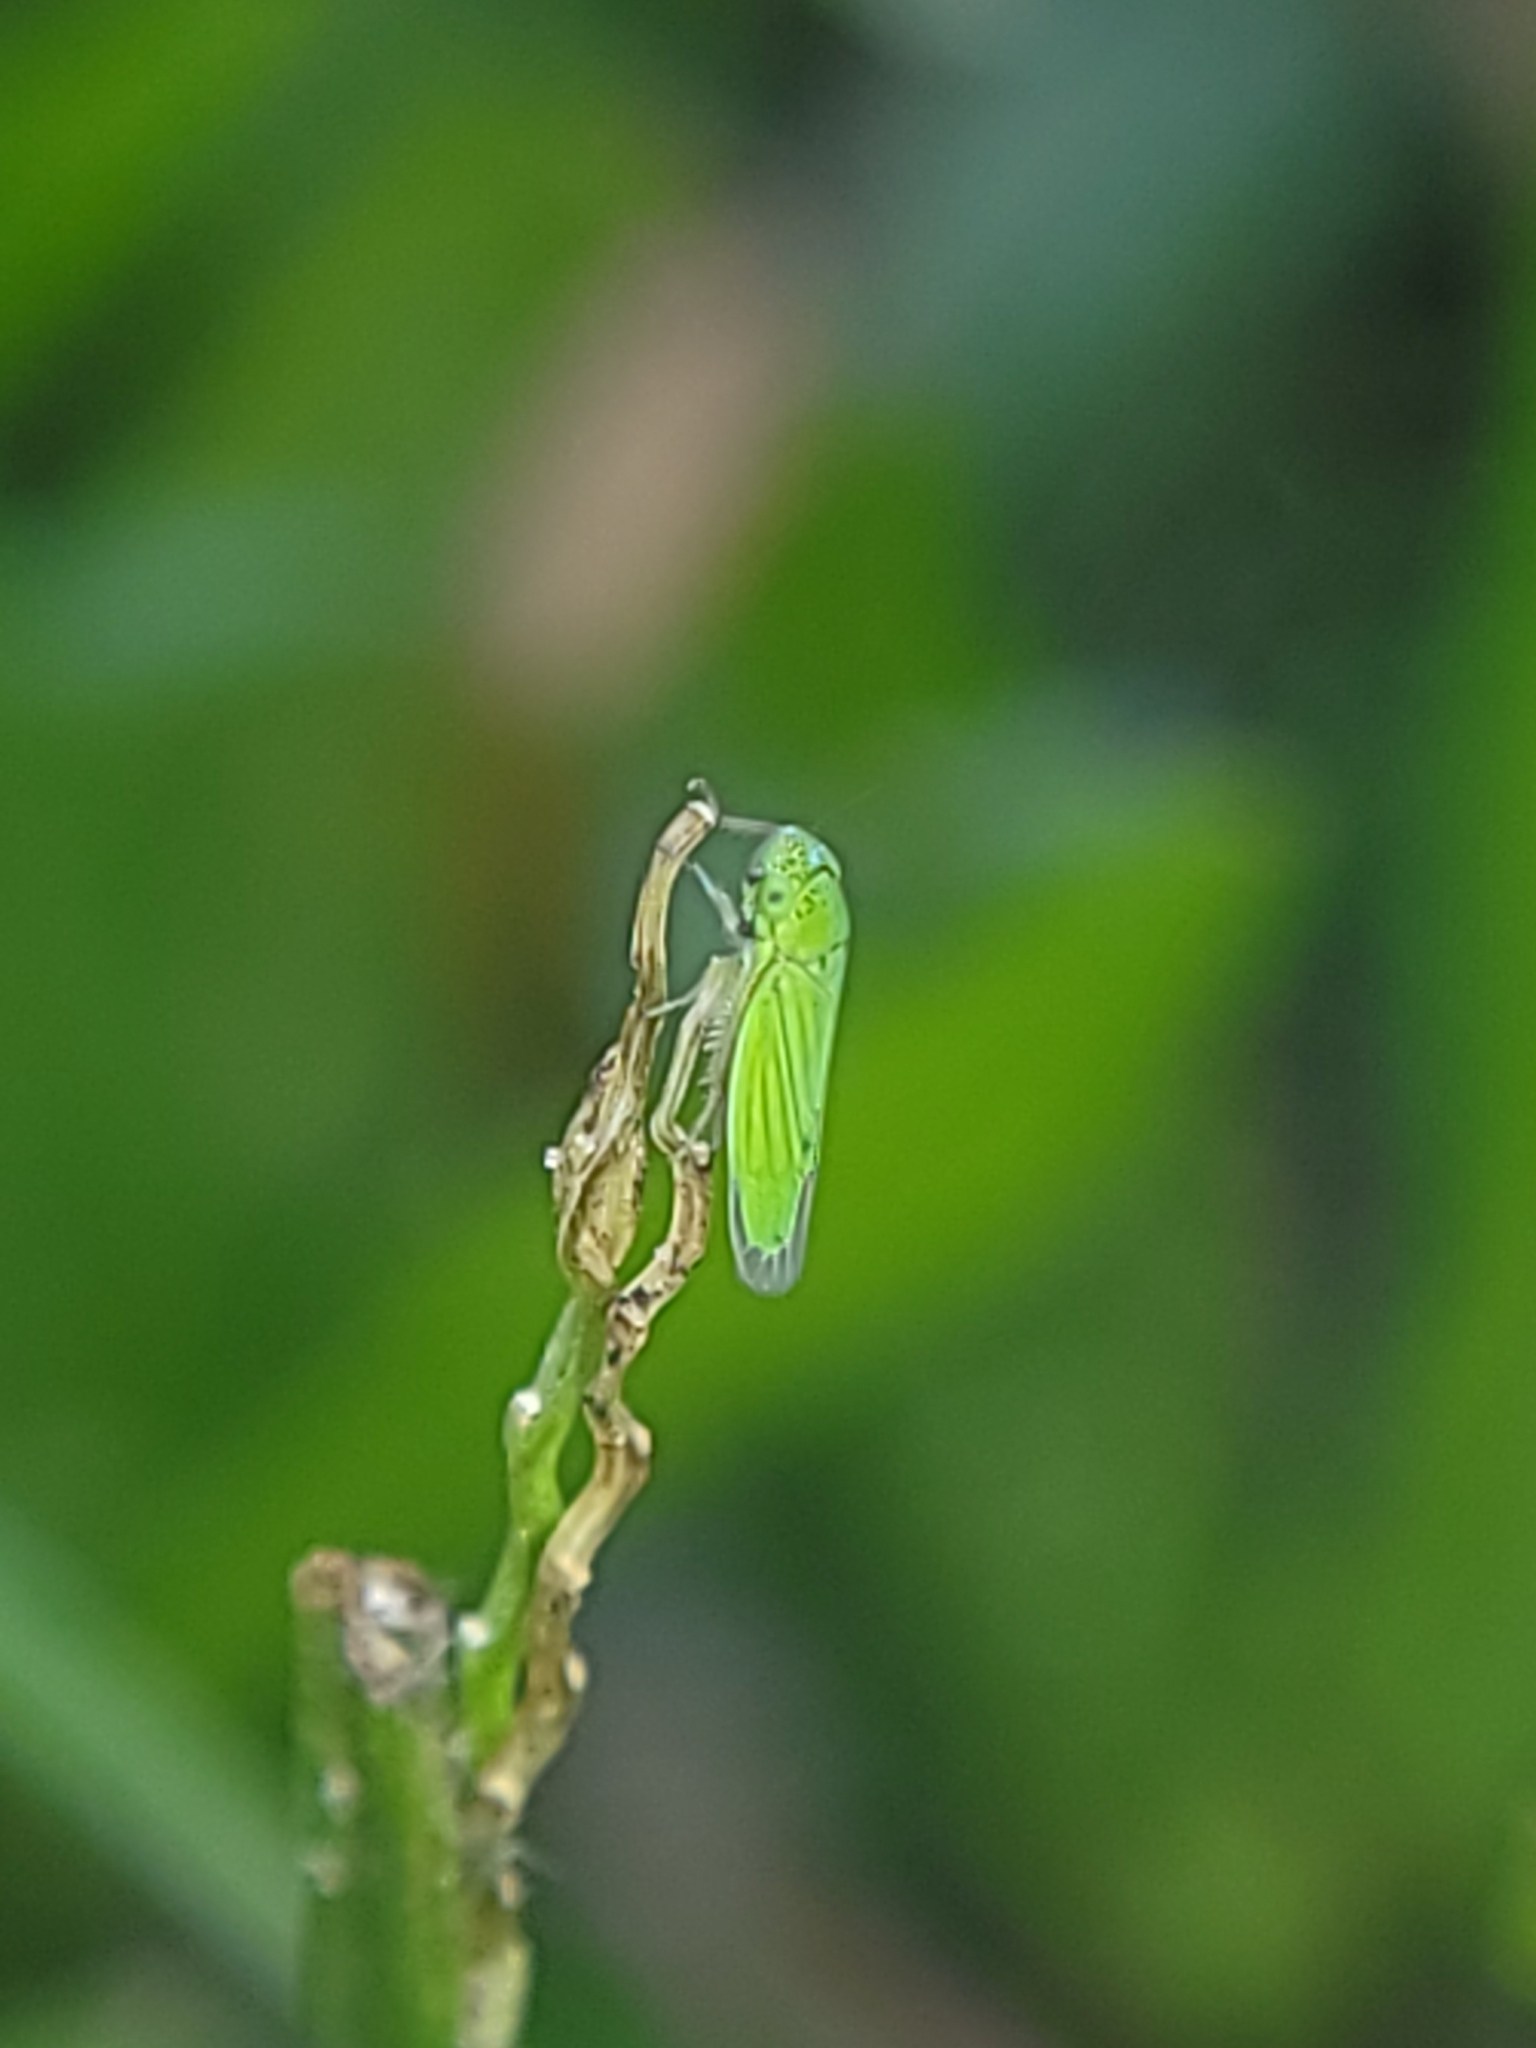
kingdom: Animalia
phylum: Arthropoda
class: Insecta
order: Hemiptera
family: Cicadellidae
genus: Hortensia
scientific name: Hortensia similis
